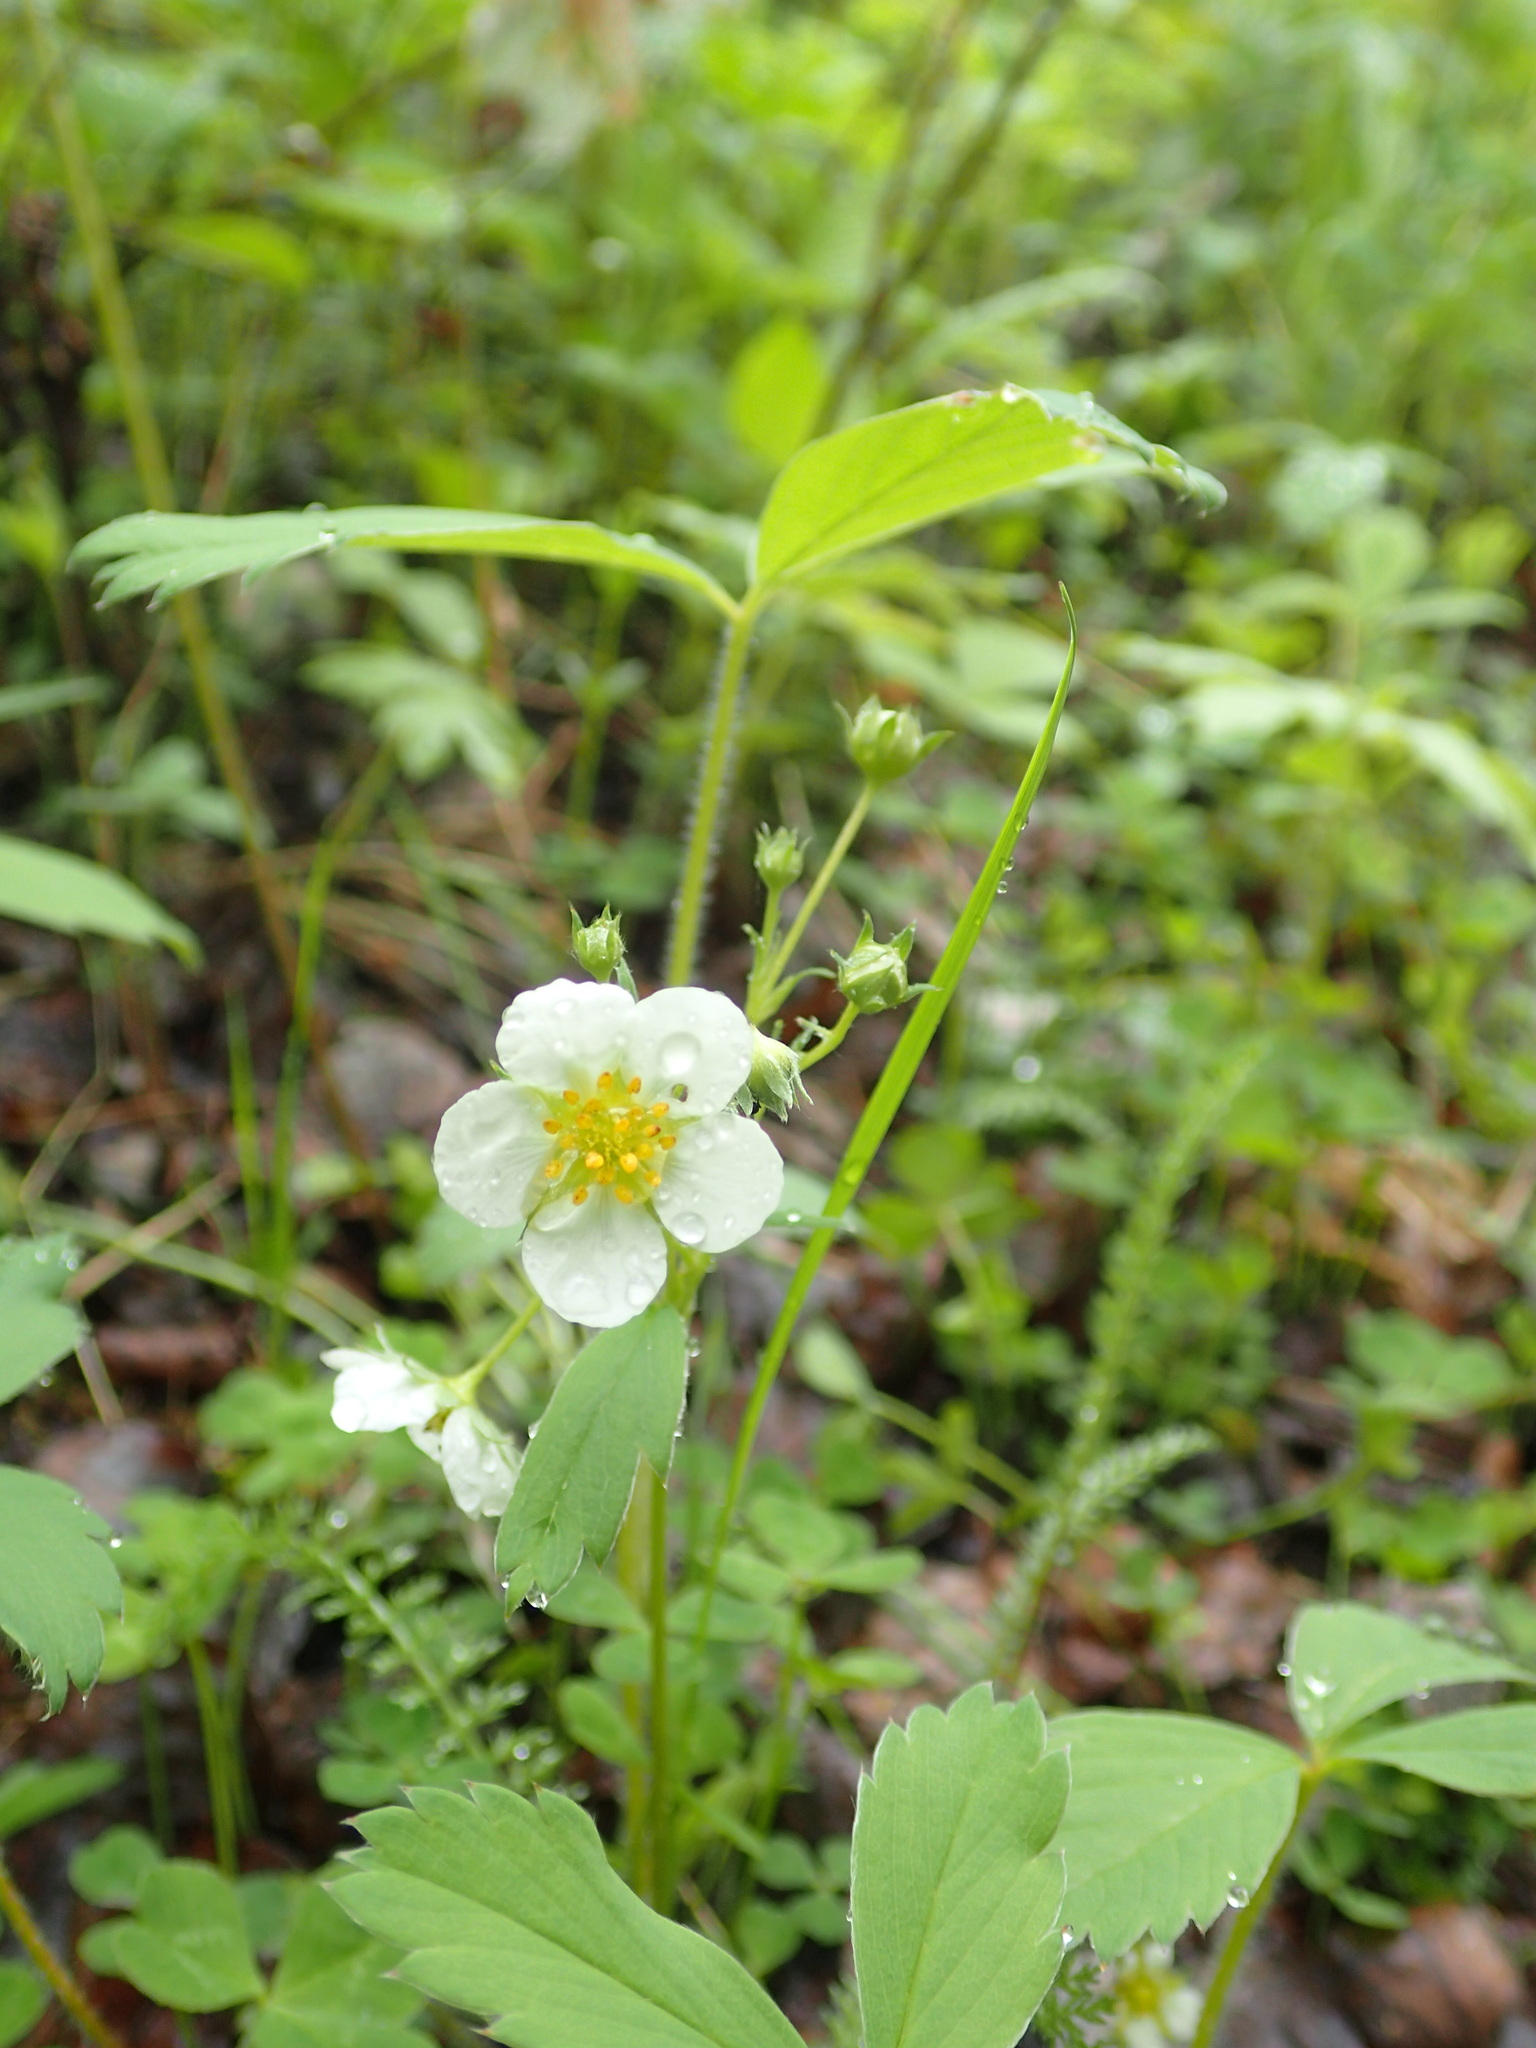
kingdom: Plantae
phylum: Tracheophyta
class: Magnoliopsida
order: Rosales
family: Rosaceae
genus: Fragaria
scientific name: Fragaria virginiana
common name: Thickleaved wild strawberry
